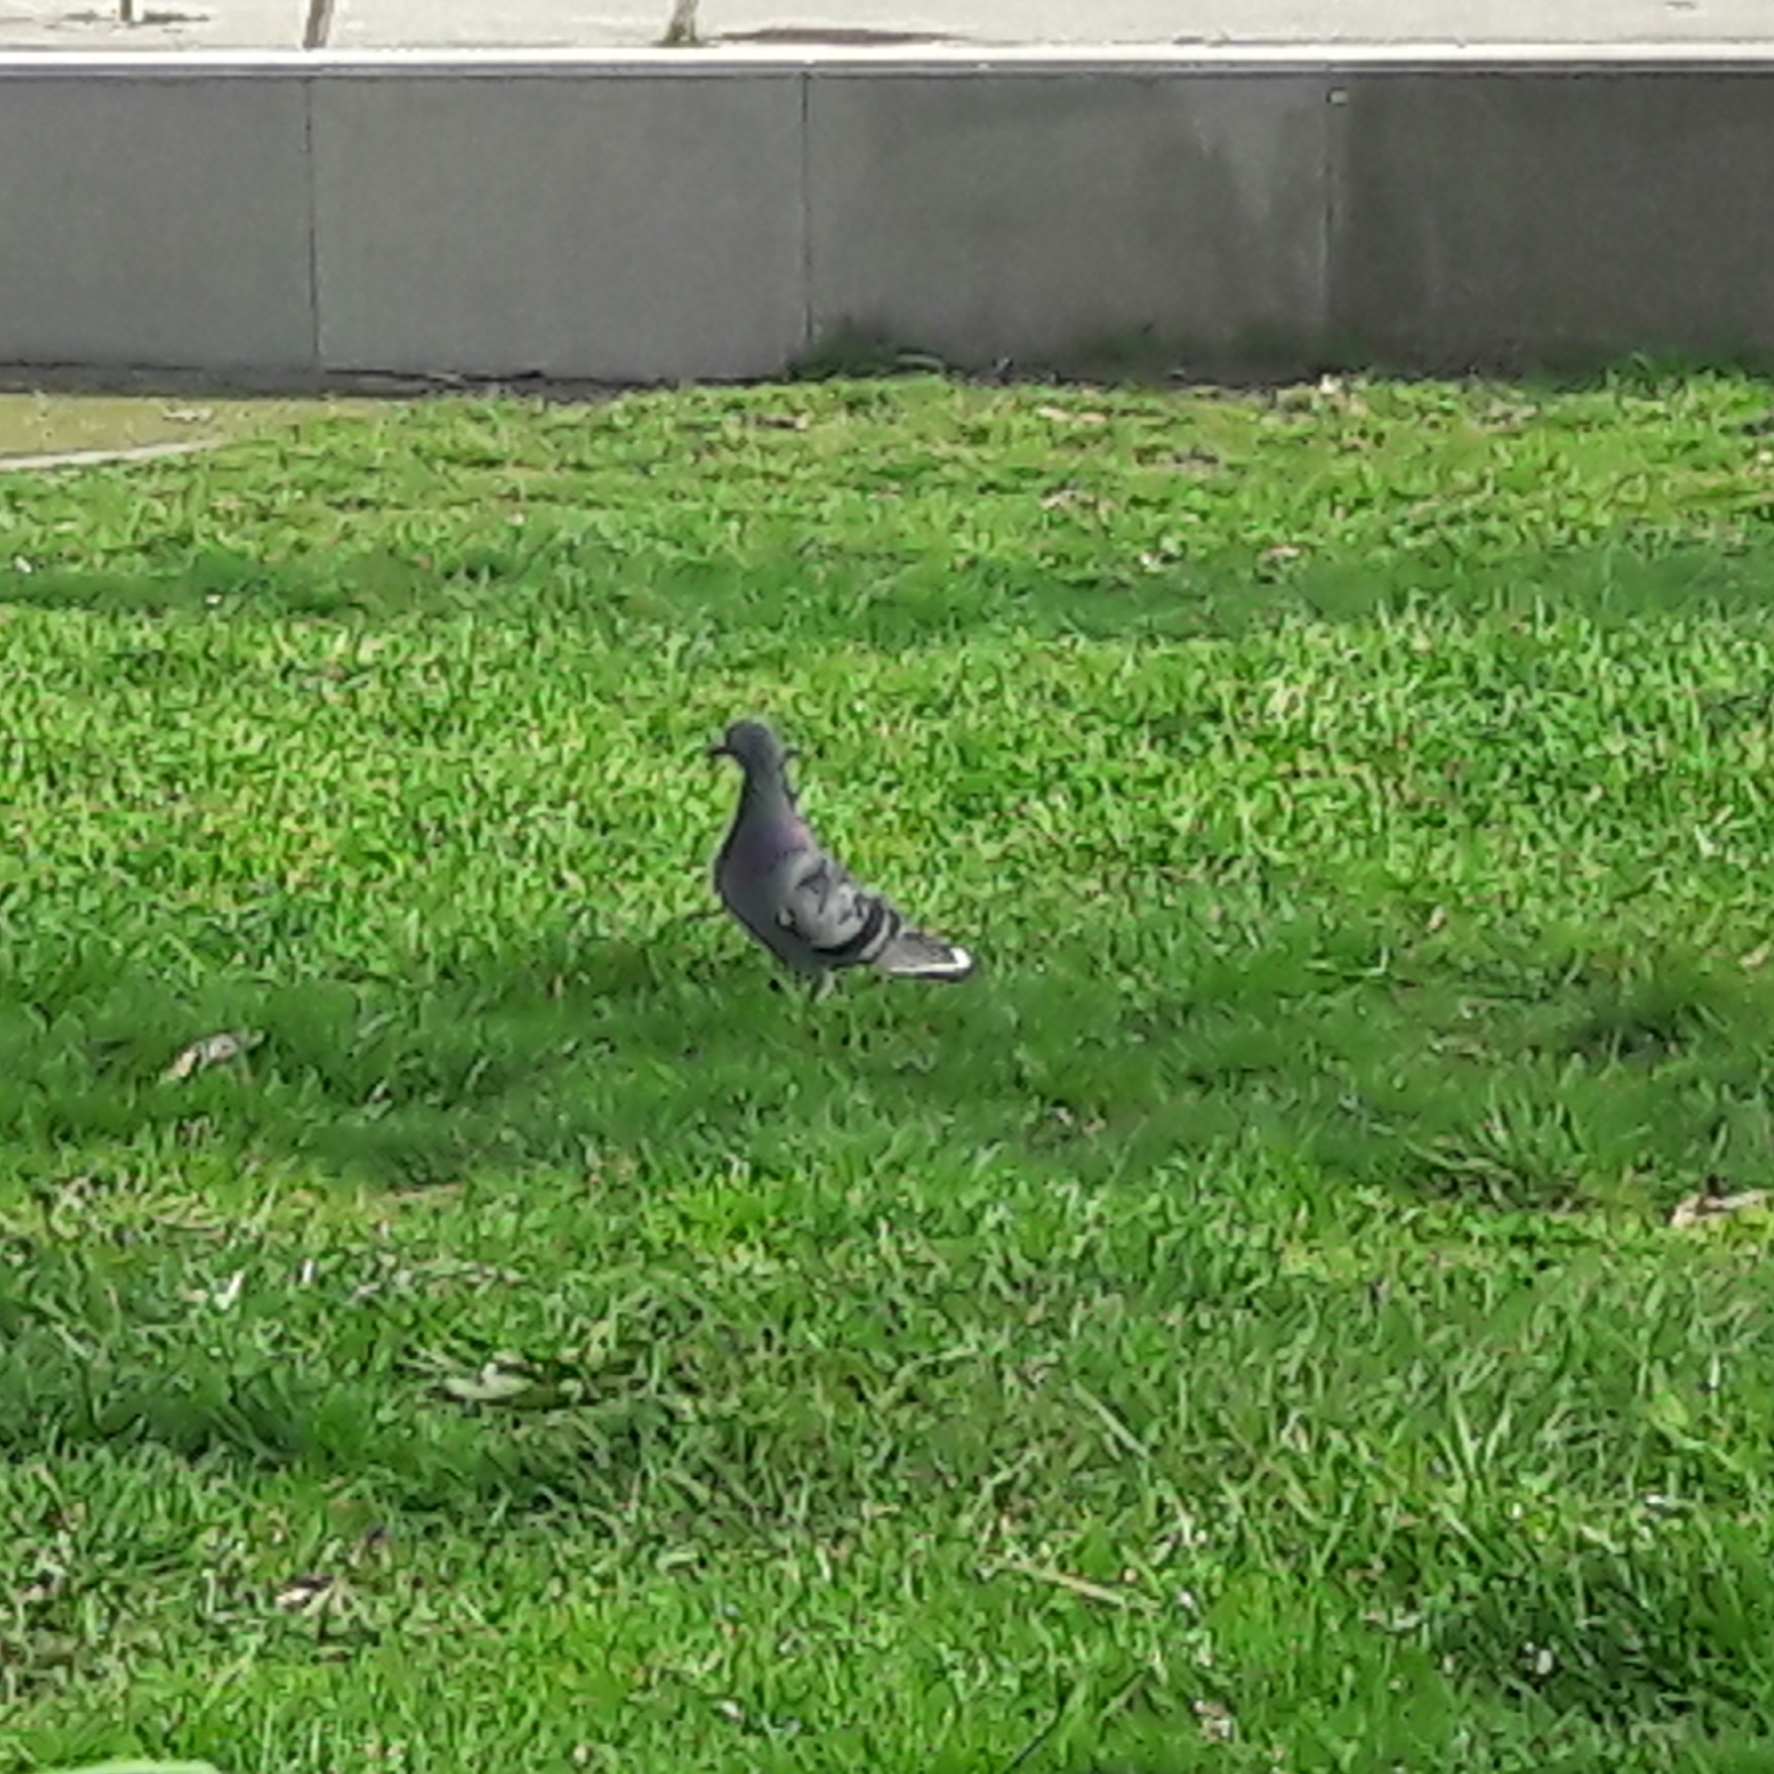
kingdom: Animalia
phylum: Chordata
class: Aves
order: Columbiformes
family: Columbidae
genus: Columba
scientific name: Columba livia
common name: Rock pigeon
